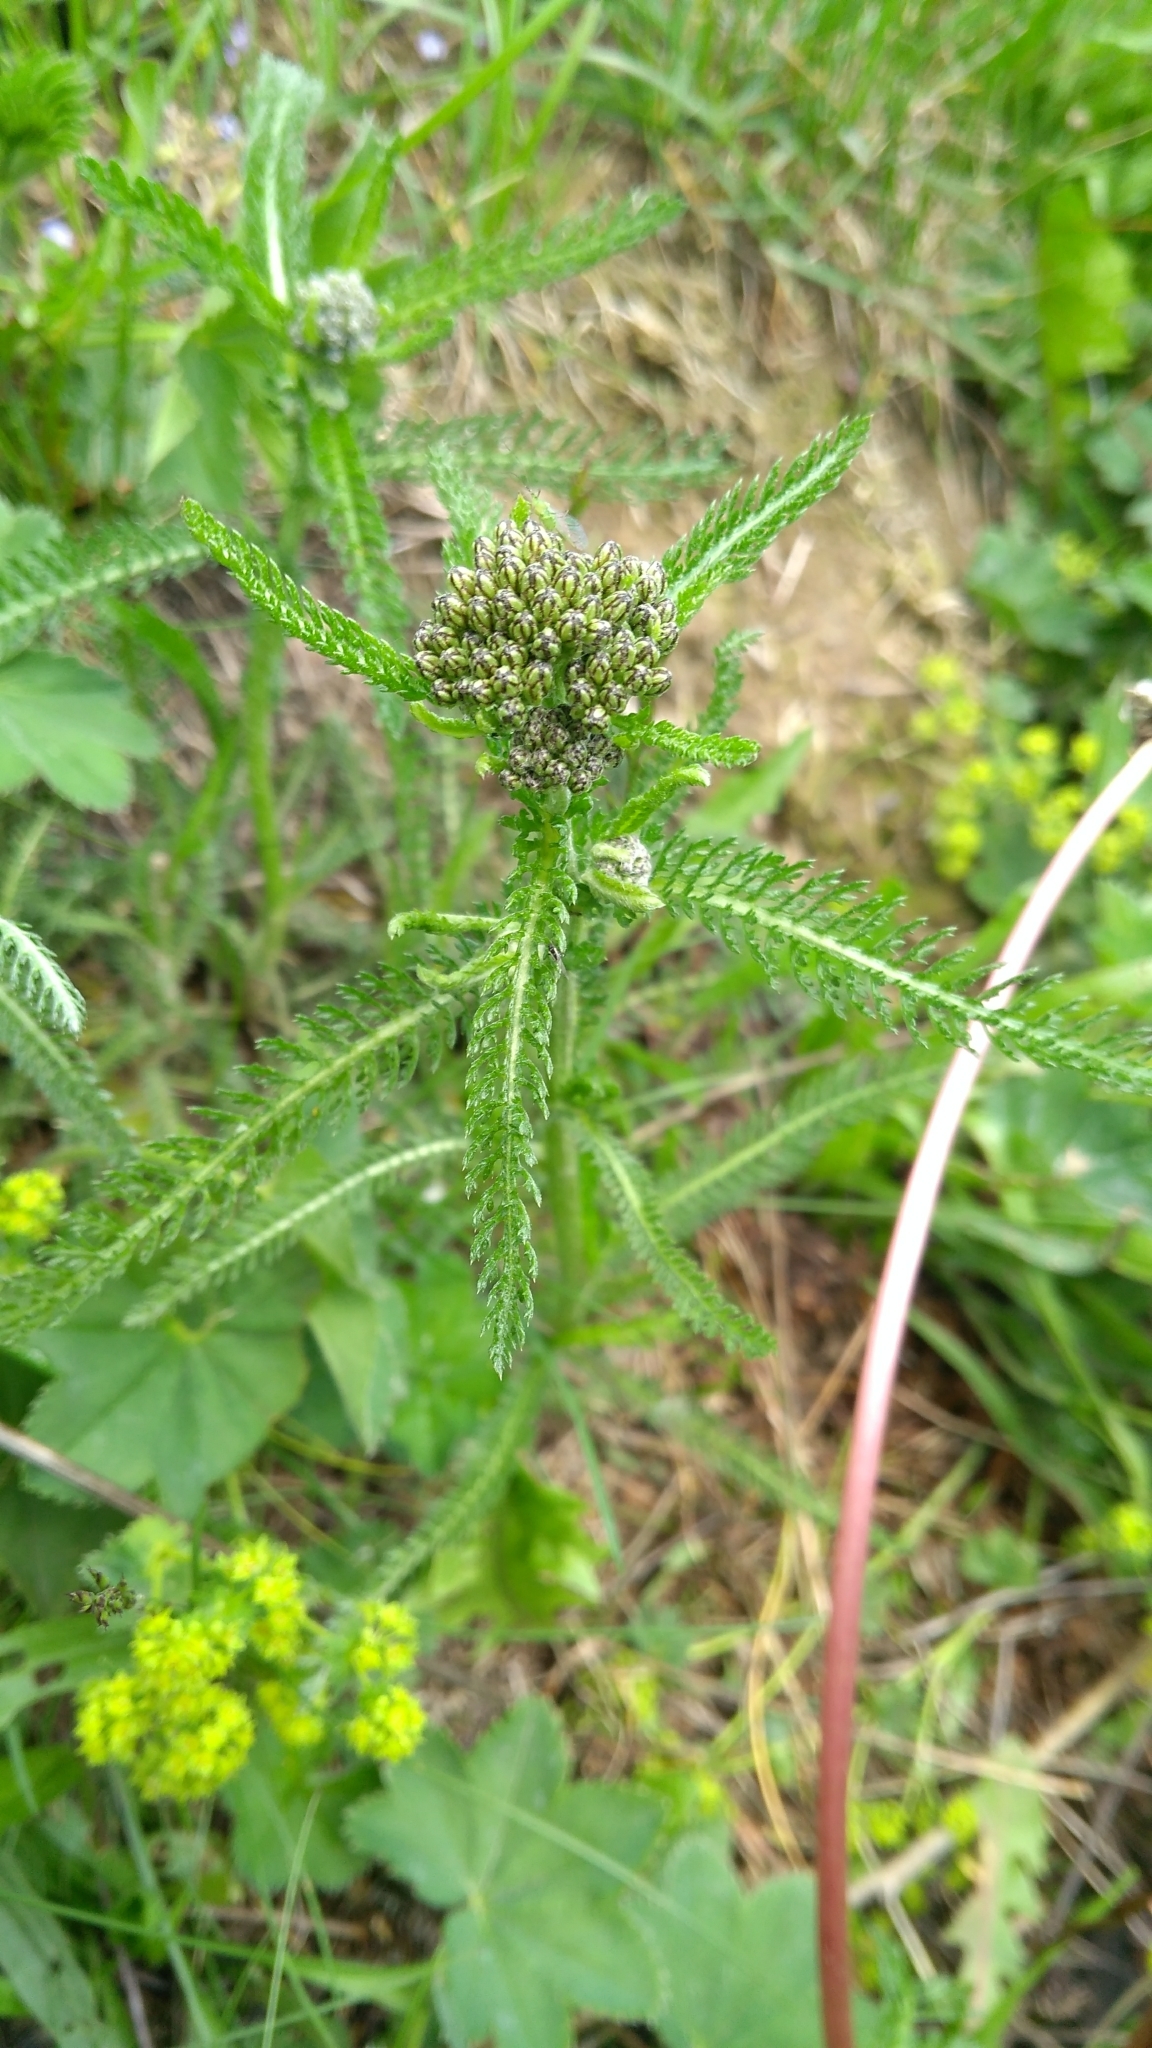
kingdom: Plantae
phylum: Tracheophyta
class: Magnoliopsida
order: Asterales
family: Asteraceae
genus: Achillea
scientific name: Achillea millefolium
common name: Yarrow
